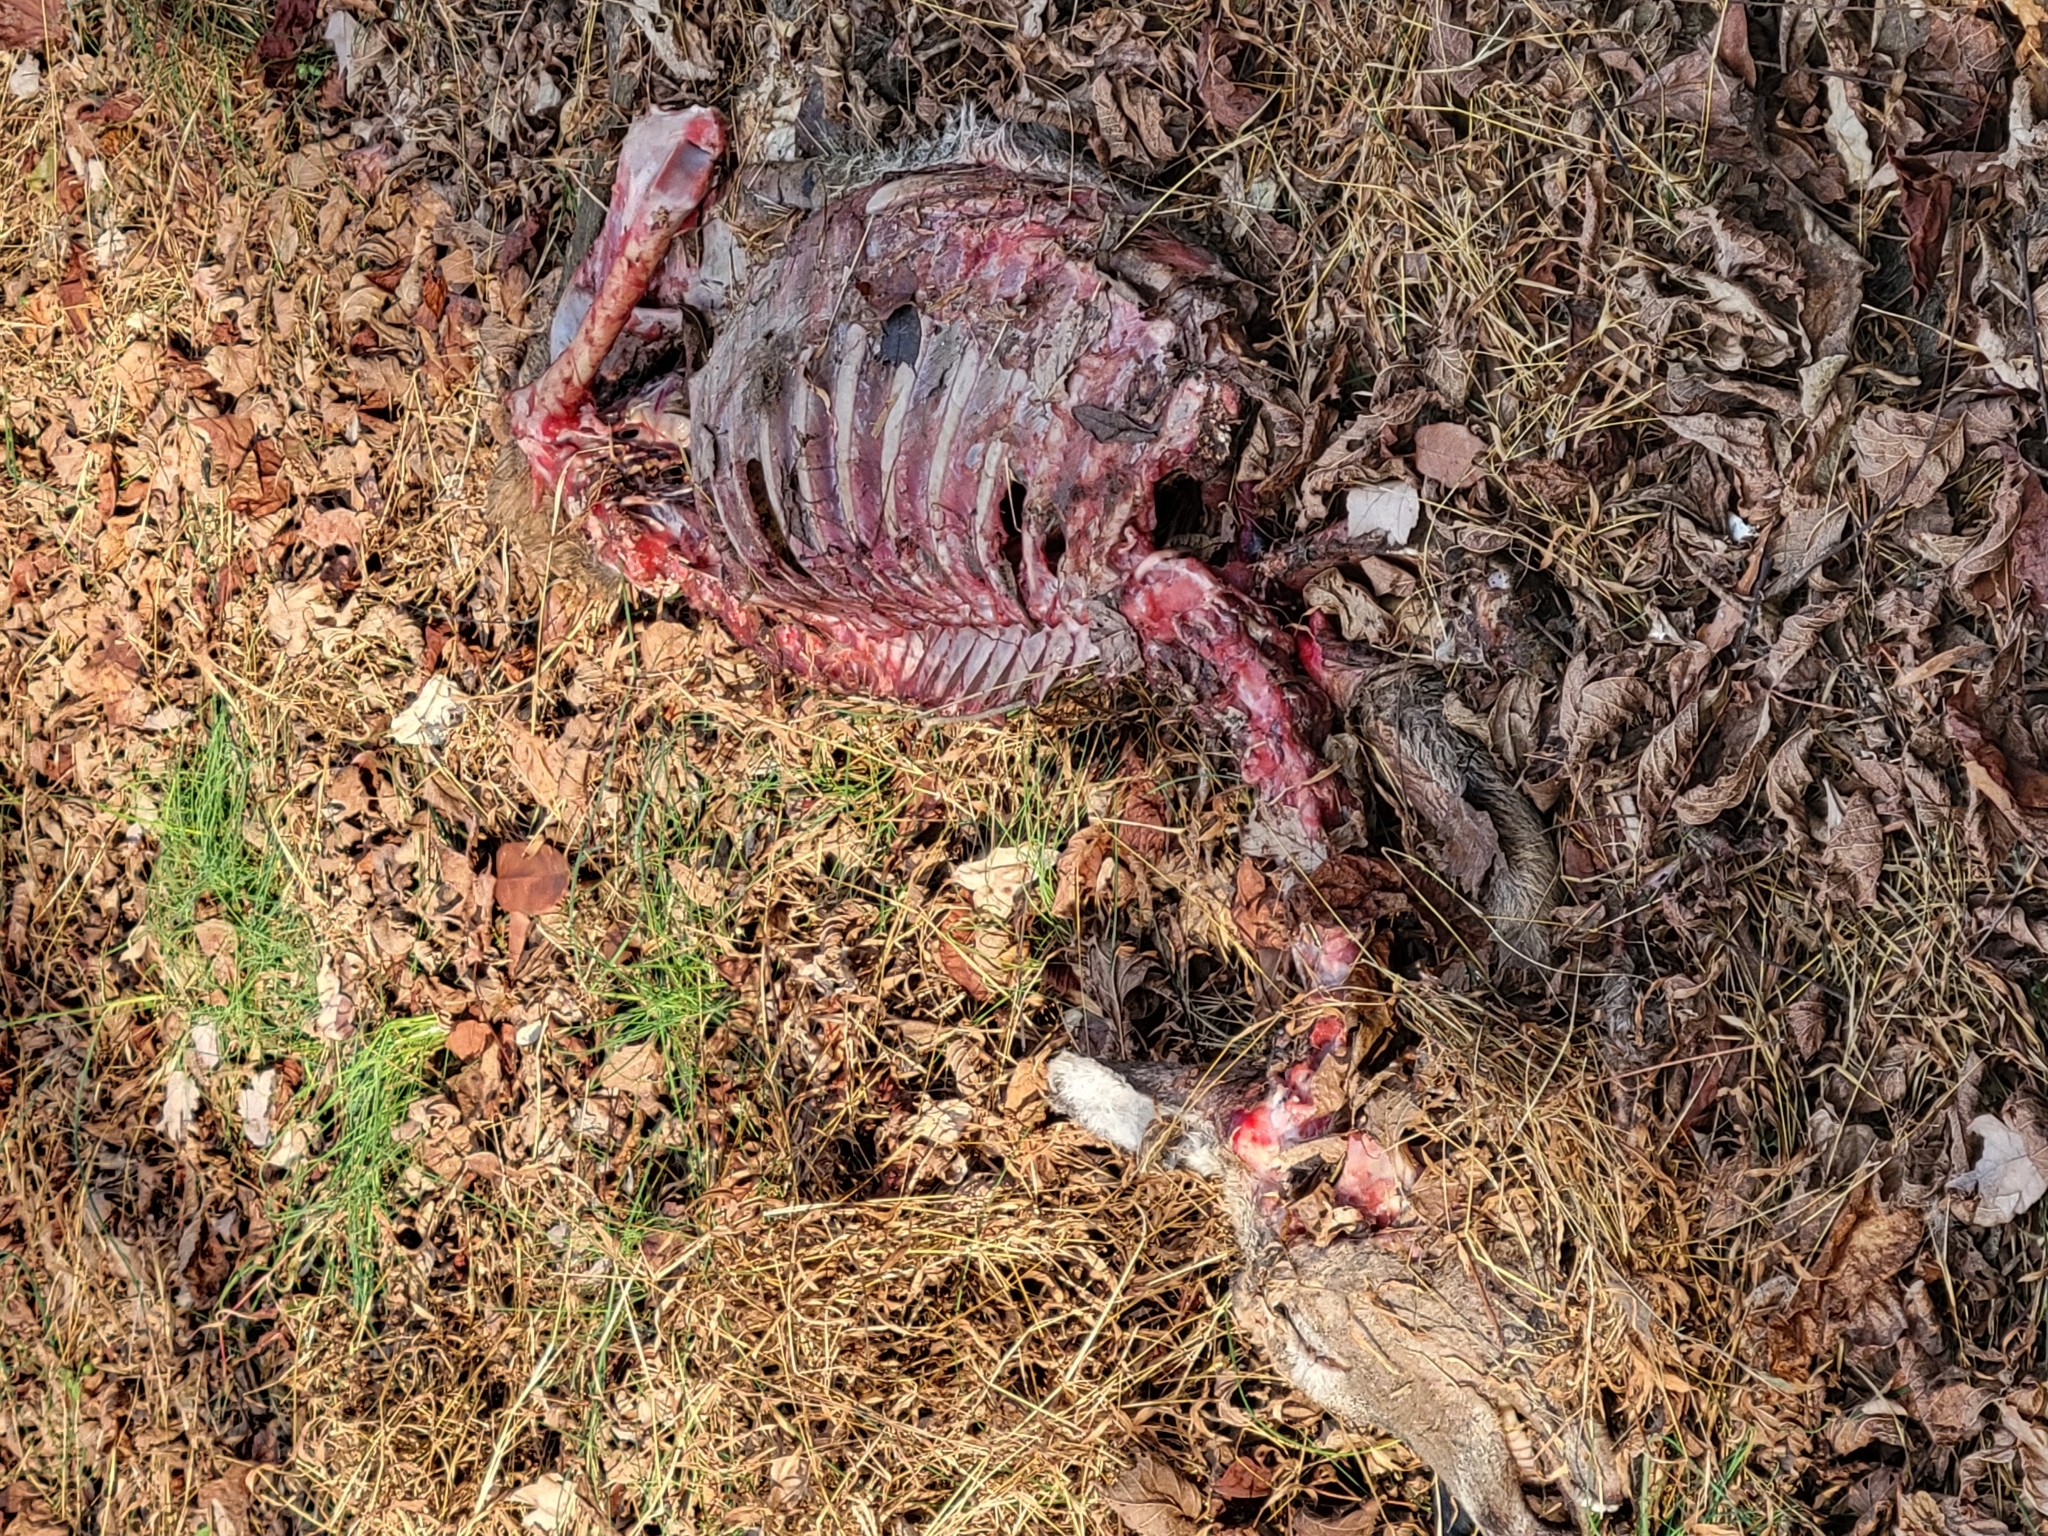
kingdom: Animalia
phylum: Chordata
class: Mammalia
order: Artiodactyla
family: Cervidae
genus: Odocoileus
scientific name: Odocoileus virginianus
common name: White-tailed deer
